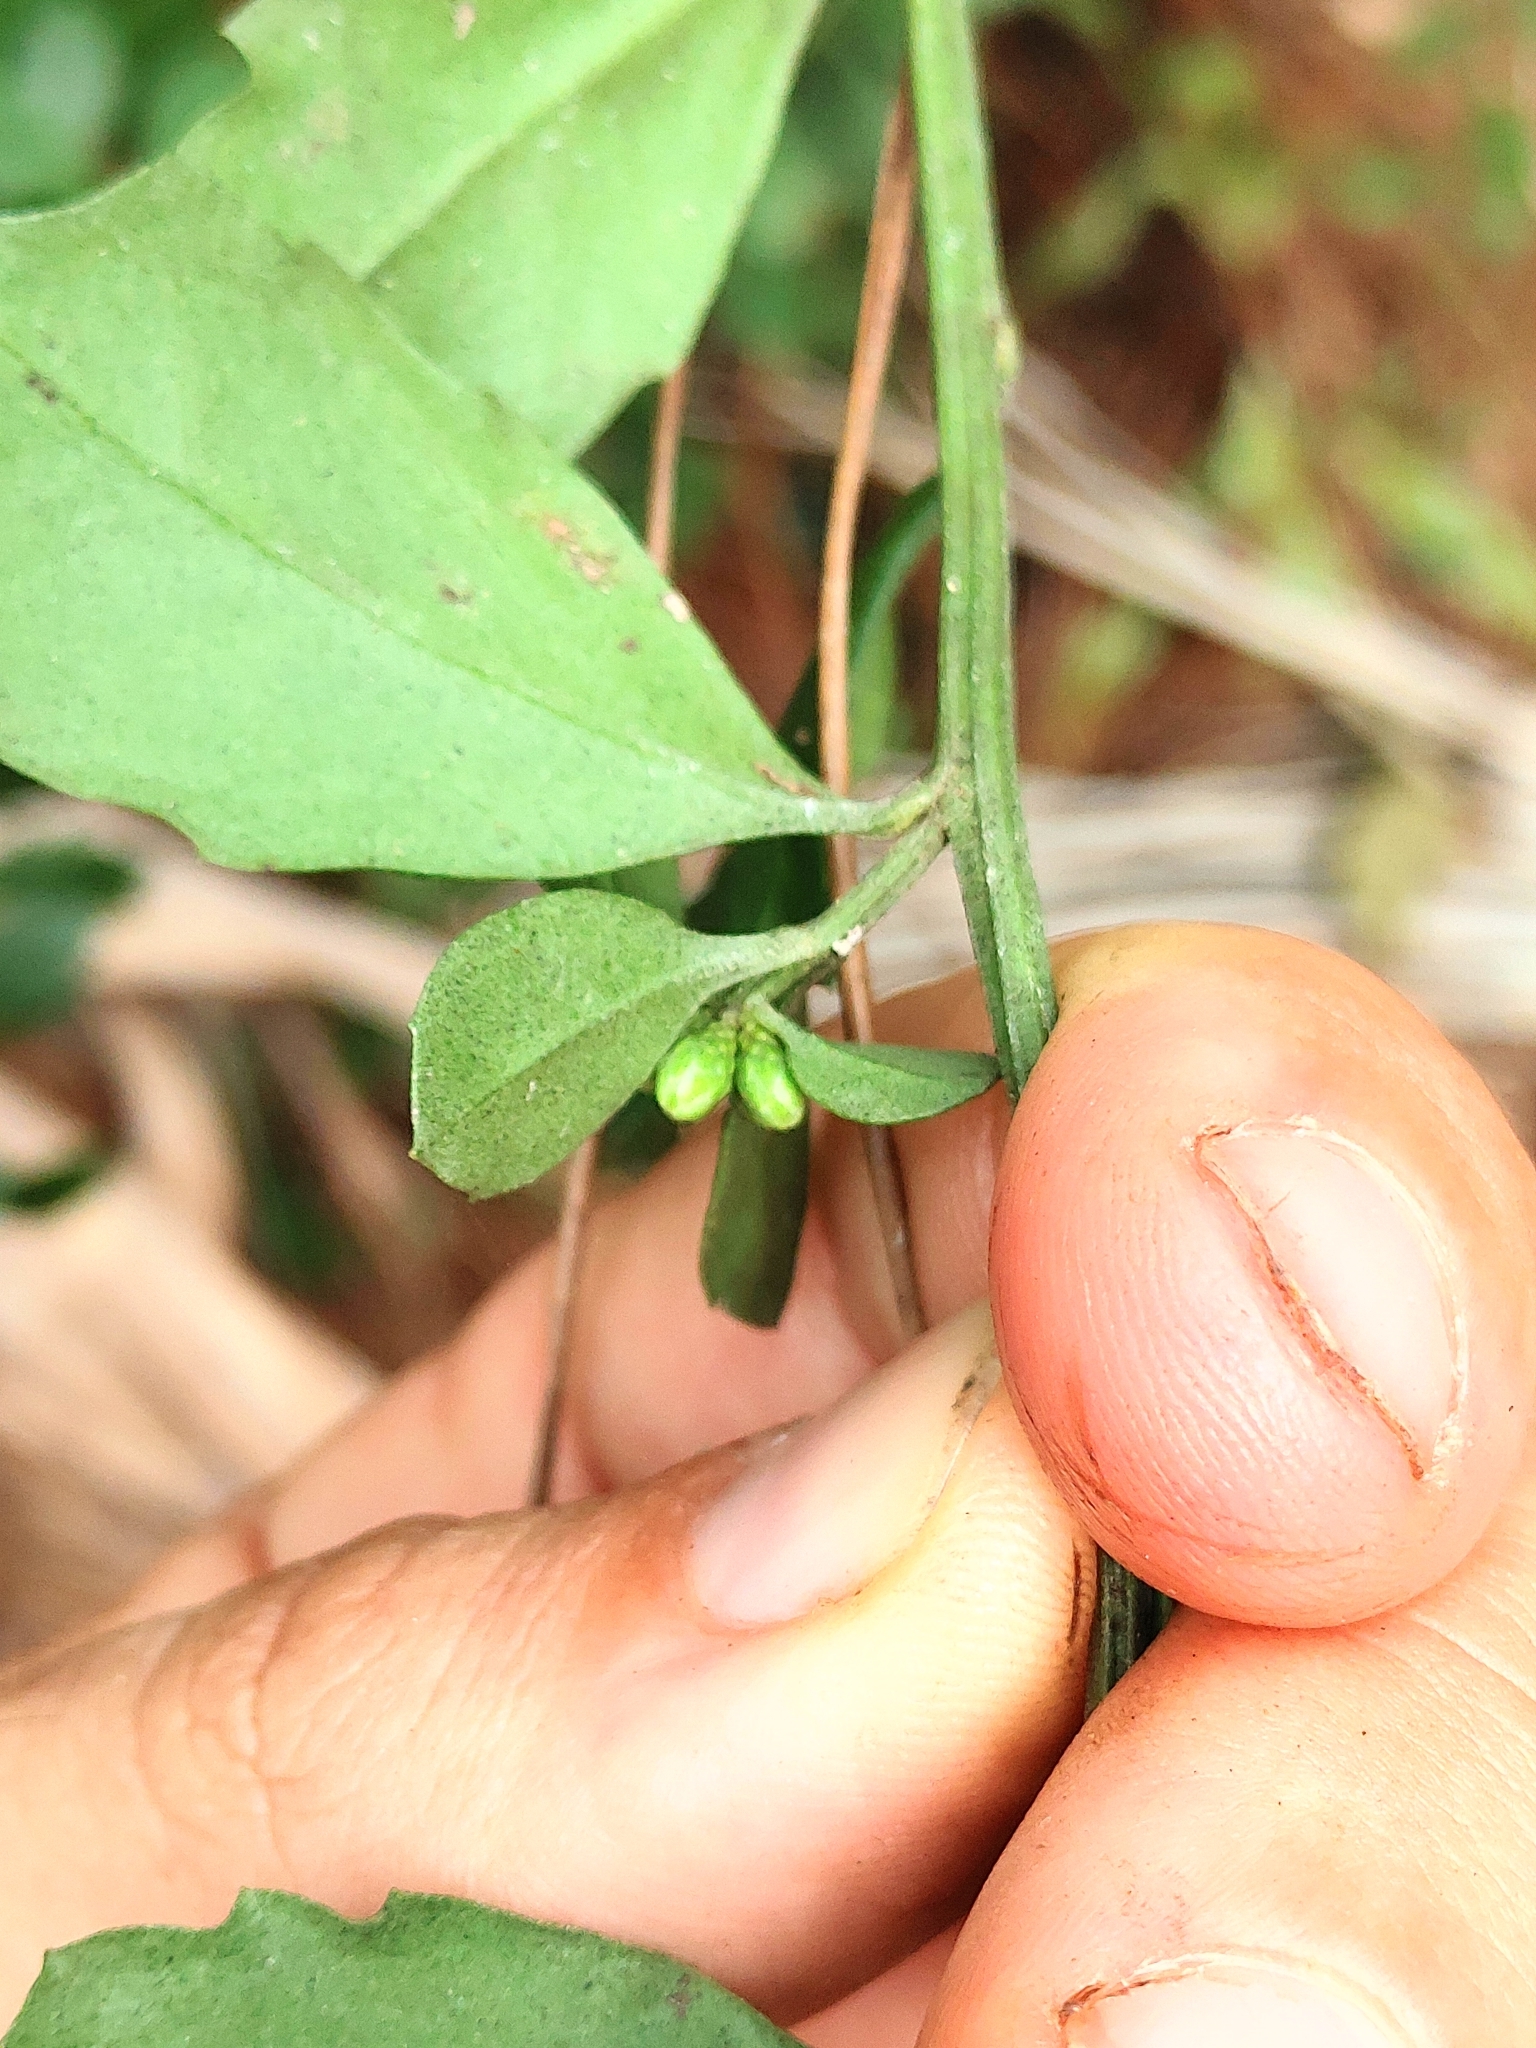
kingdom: Plantae
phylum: Tracheophyta
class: Magnoliopsida
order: Asterales
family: Asteraceae
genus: Baccharis
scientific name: Baccharis glomeruliflora
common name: Silverling groundsel bush
